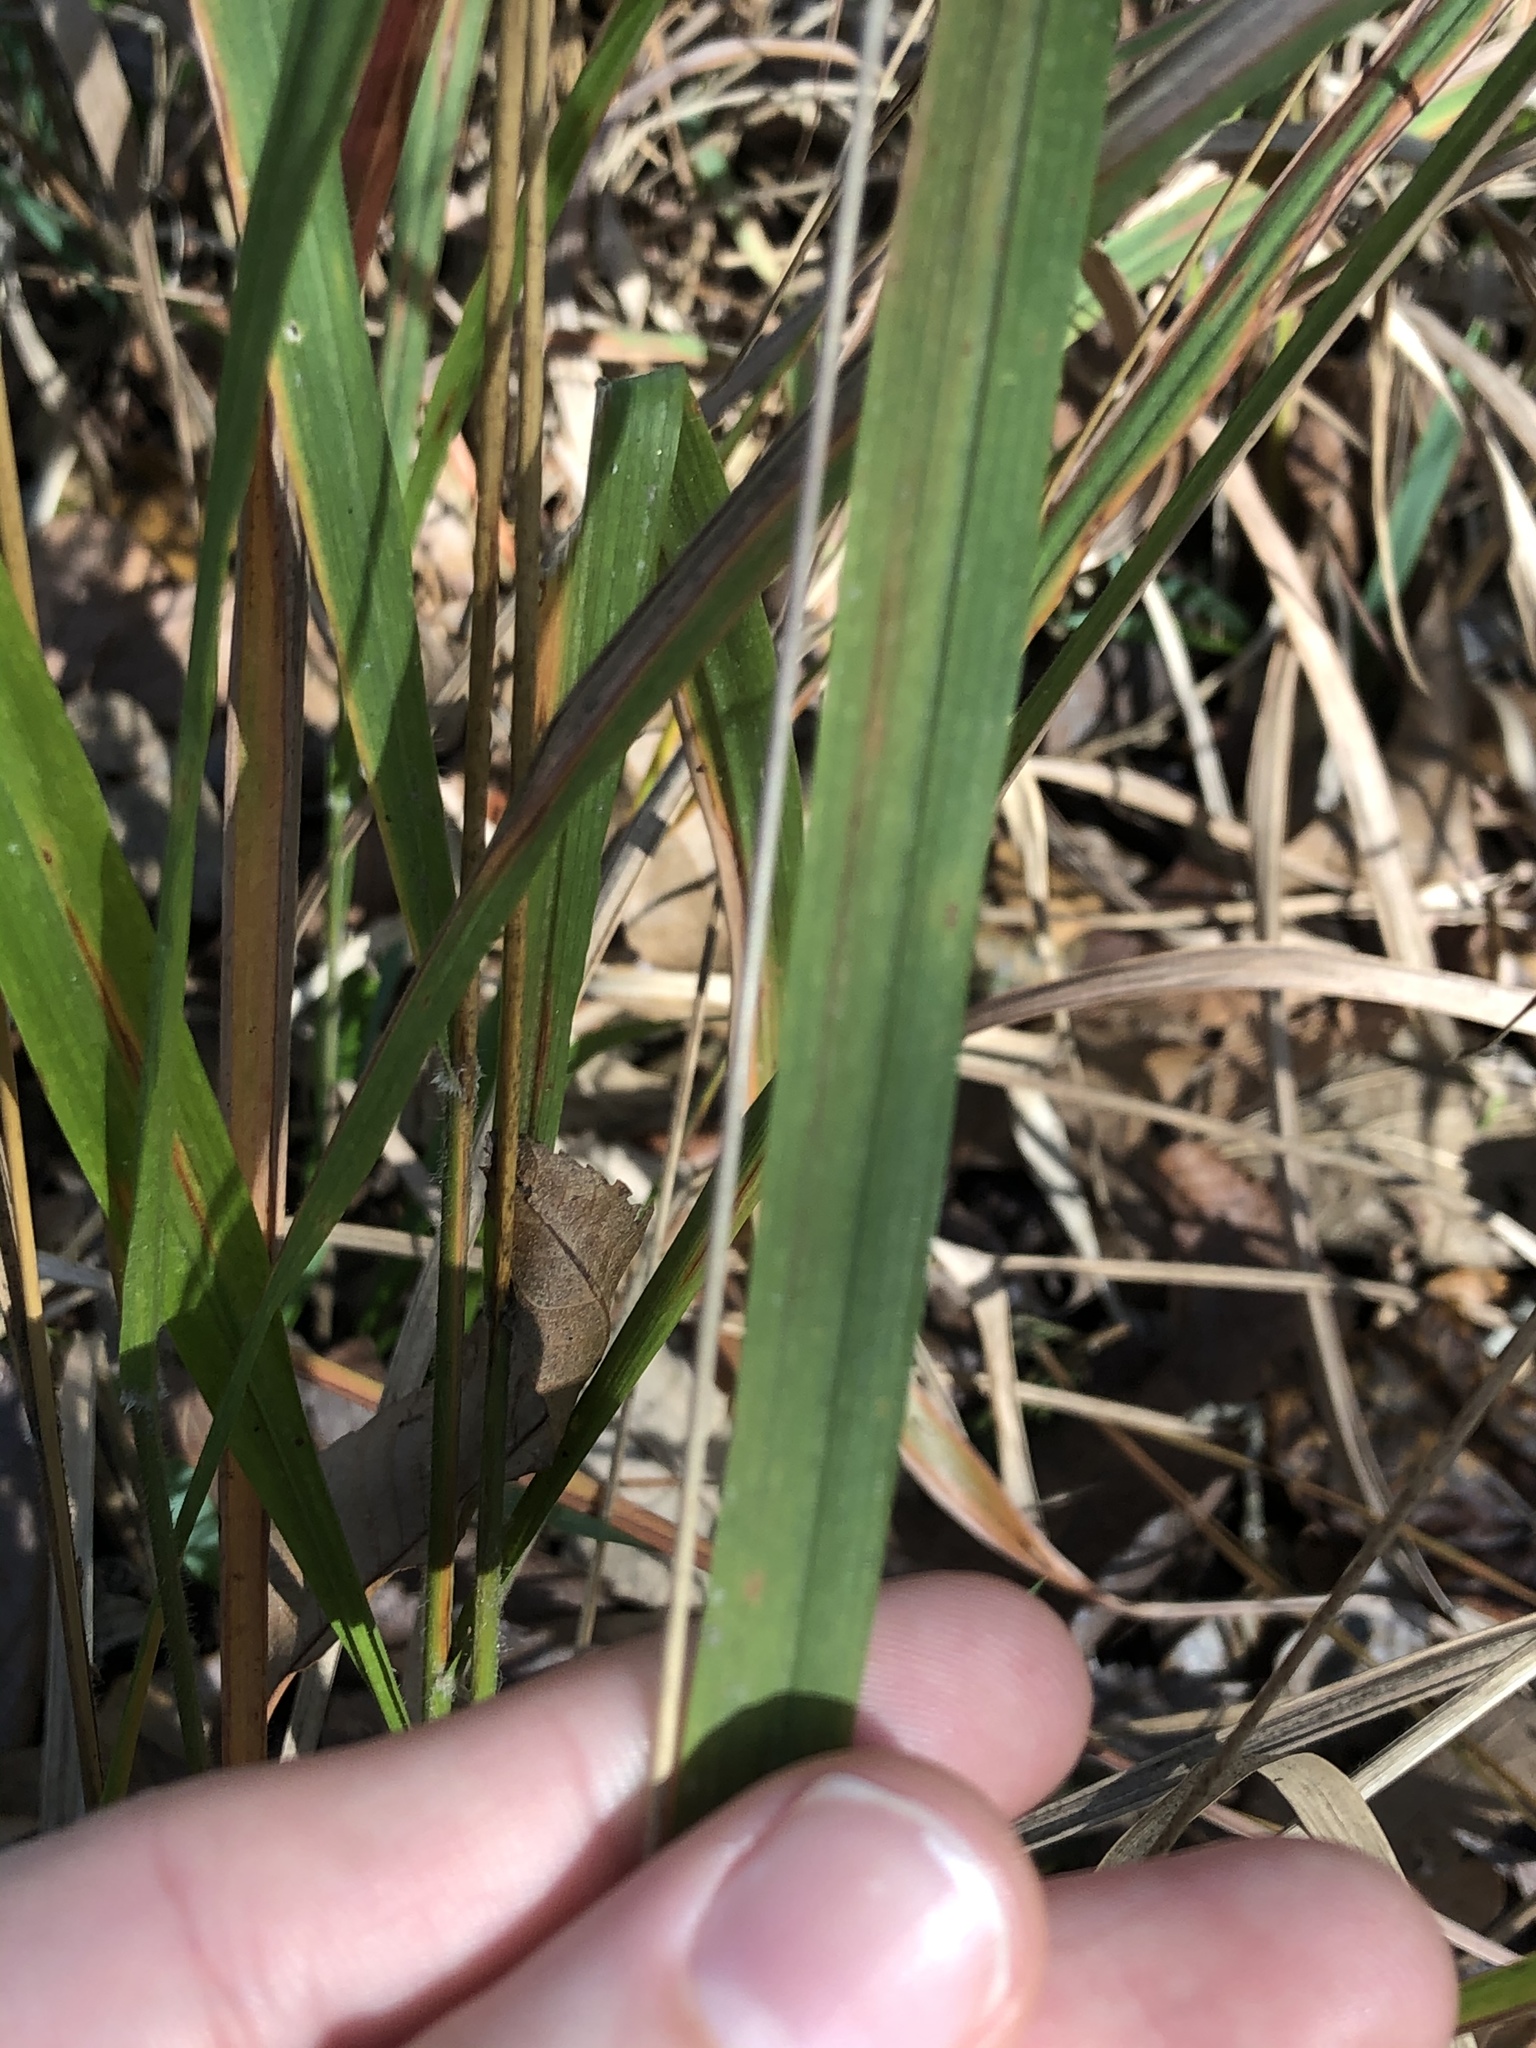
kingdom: Plantae
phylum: Tracheophyta
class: Liliopsida
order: Poales
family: Poaceae
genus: Chasmanthium
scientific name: Chasmanthium laxum
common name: Slender chasmanthium
